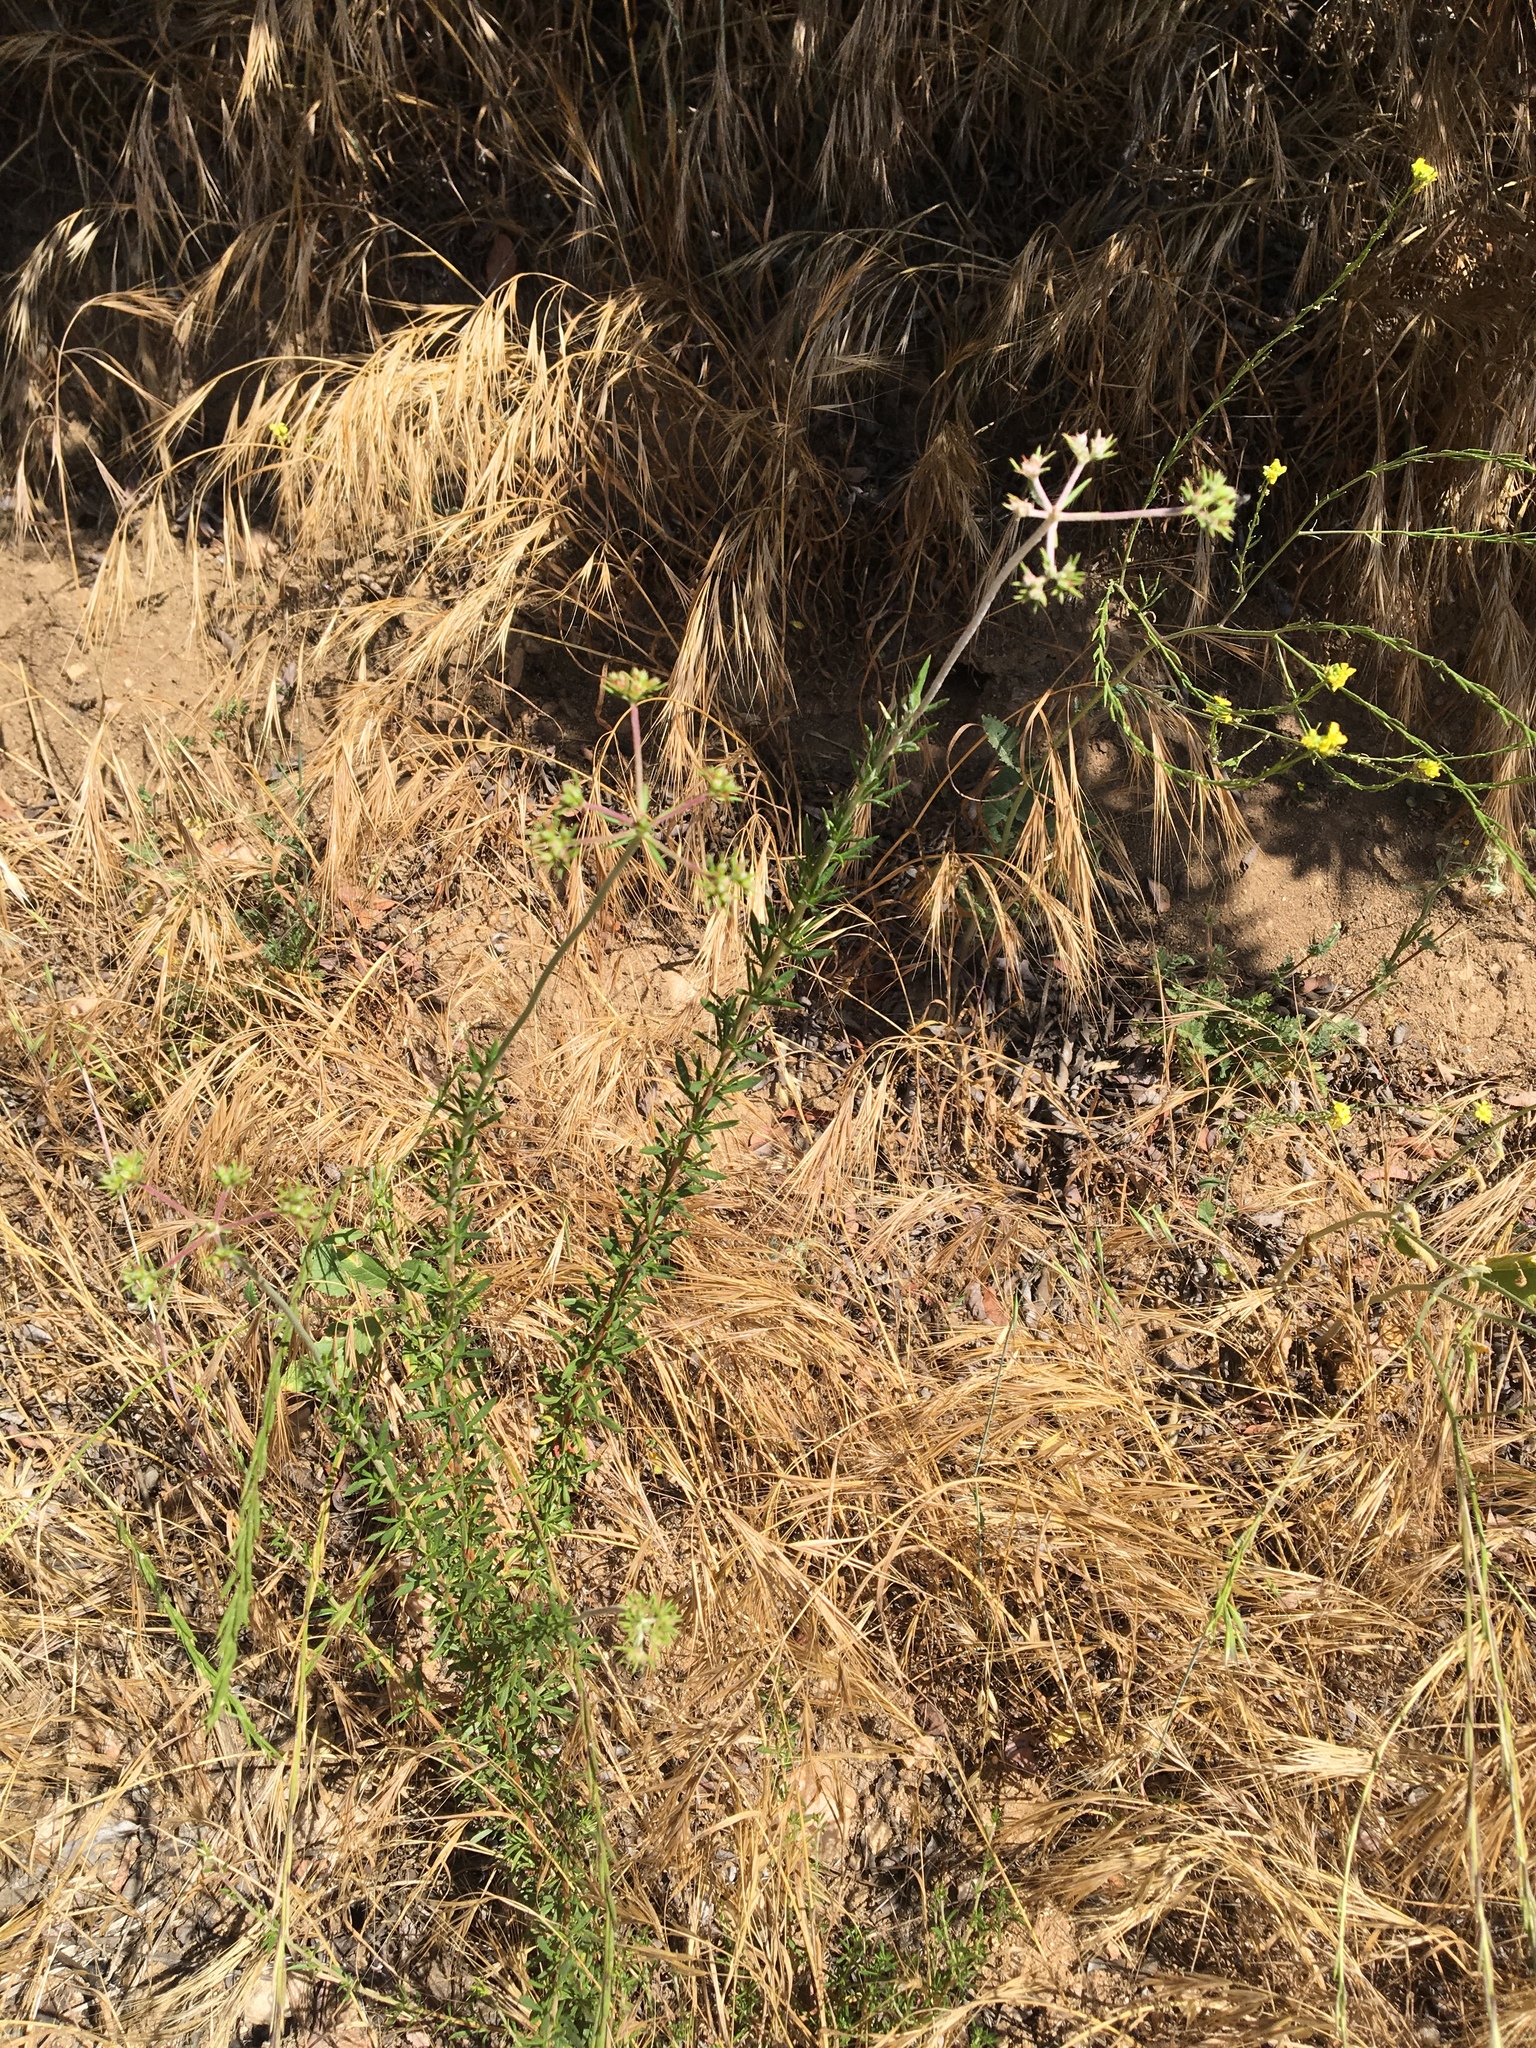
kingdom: Plantae
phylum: Tracheophyta
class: Magnoliopsida
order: Caryophyllales
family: Polygonaceae
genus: Eriogonum
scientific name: Eriogonum fasciculatum
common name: California wild buckwheat
